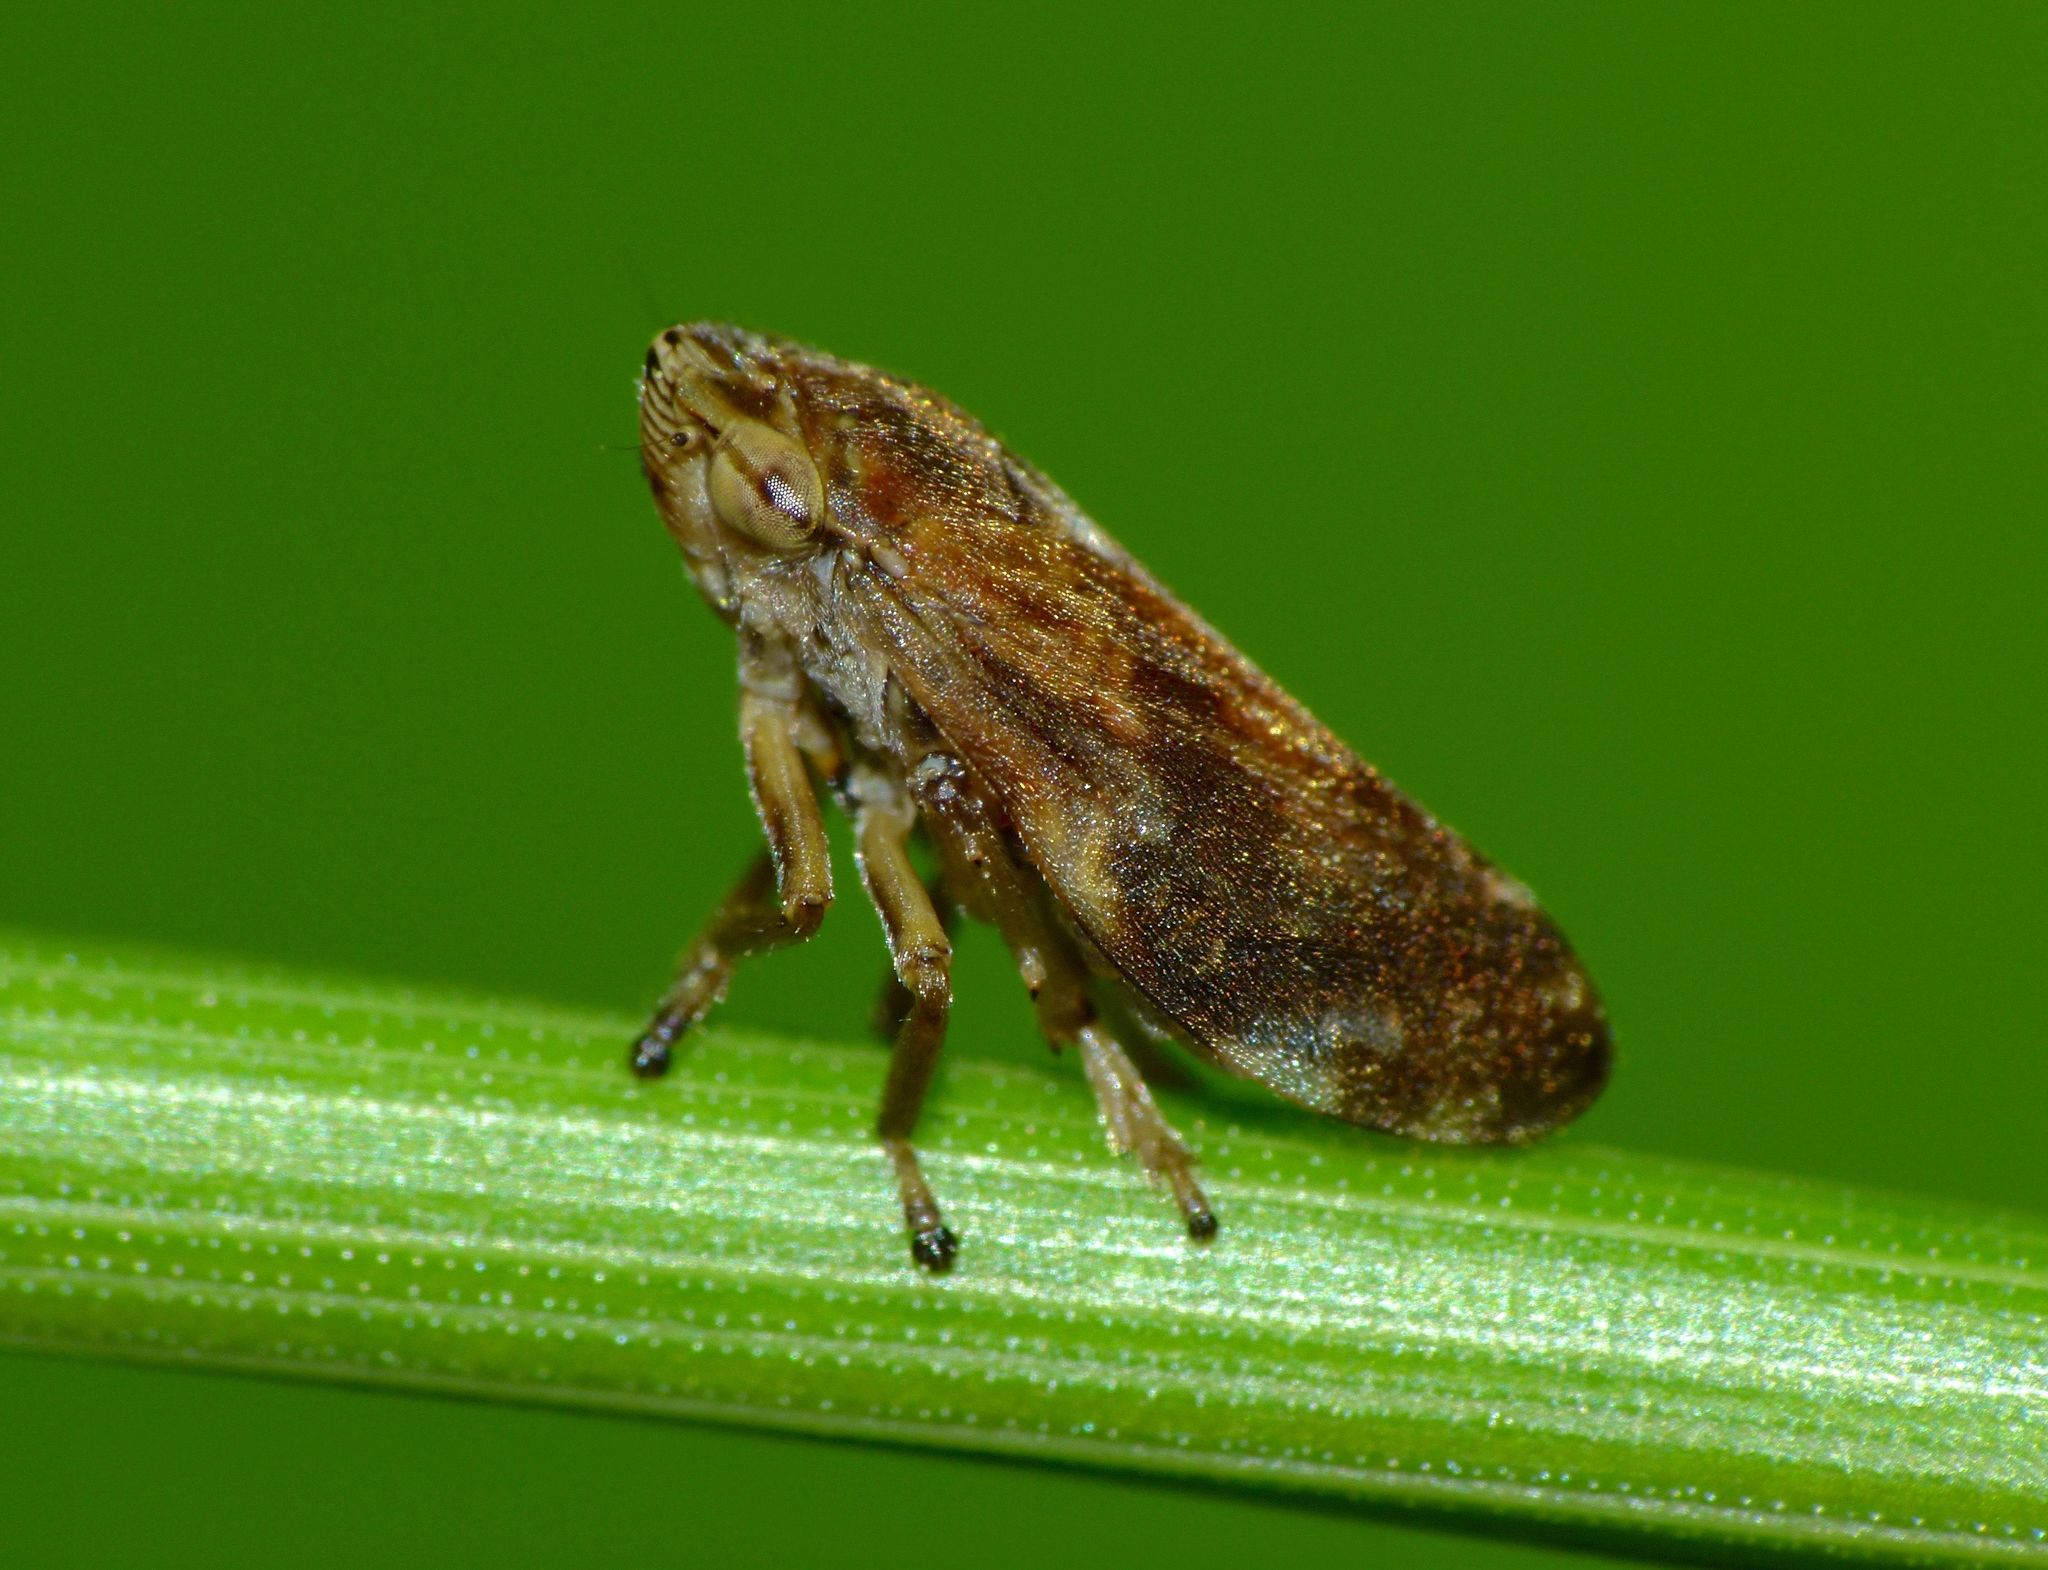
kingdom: Animalia
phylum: Arthropoda
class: Insecta
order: Hemiptera
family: Aphrophoridae
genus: Philaenus
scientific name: Philaenus spumarius
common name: Meadow spittlebug
